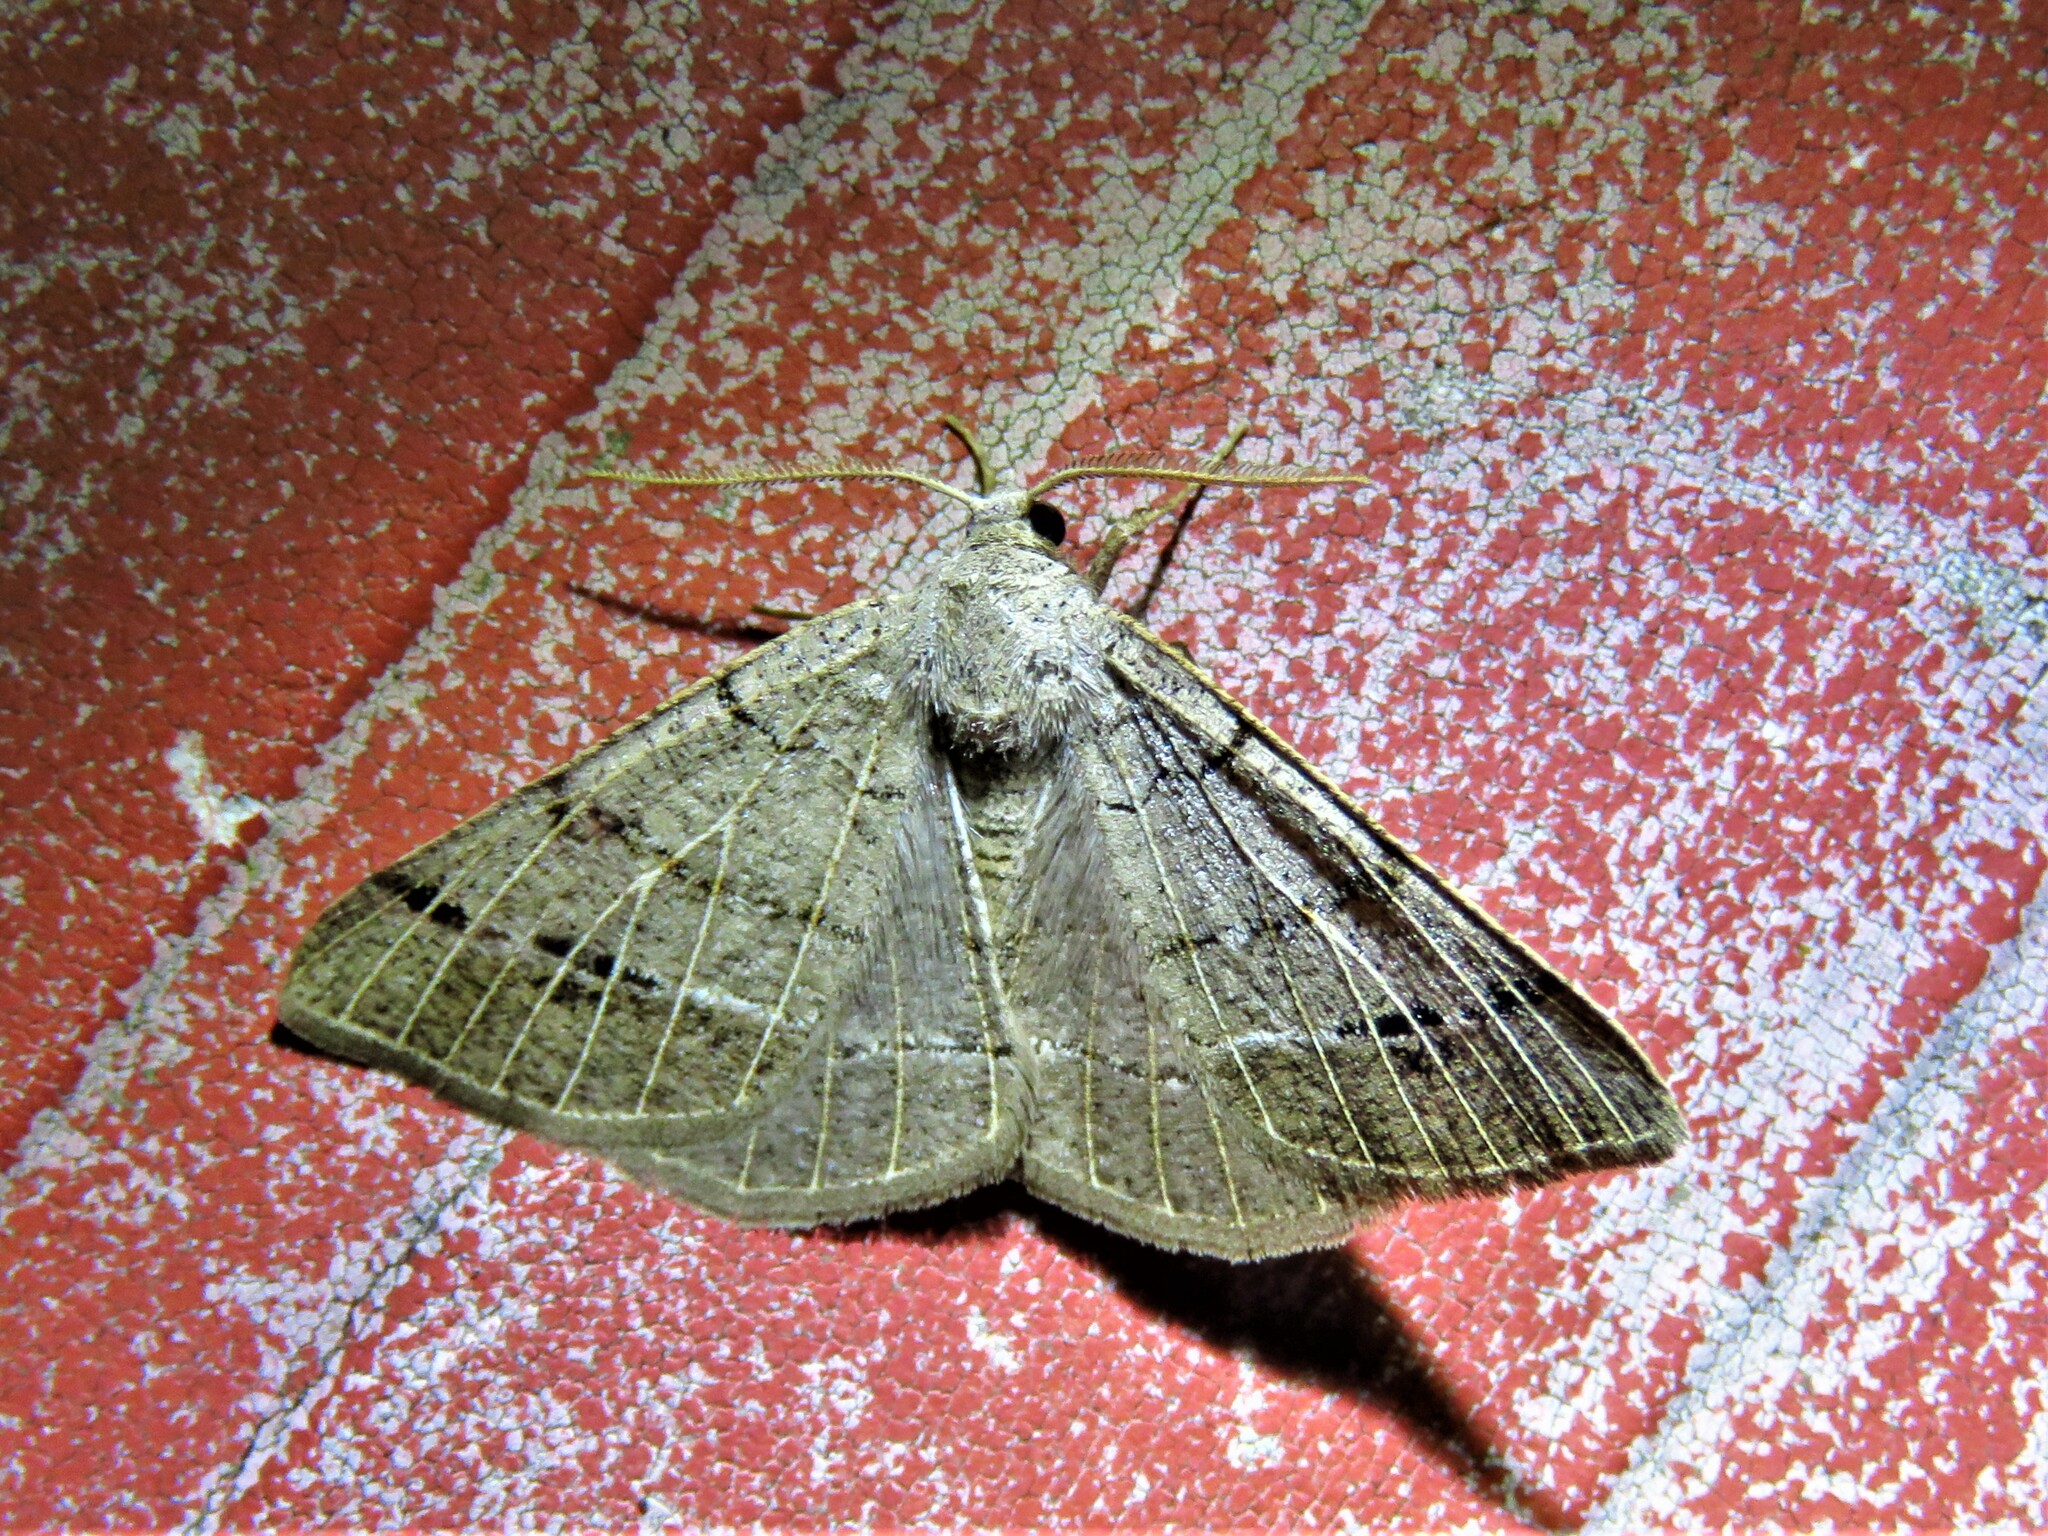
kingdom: Animalia
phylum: Arthropoda
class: Insecta
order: Lepidoptera
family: Geometridae
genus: Isturgia
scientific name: Isturgia dislocaria
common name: Pale-viened enconista
